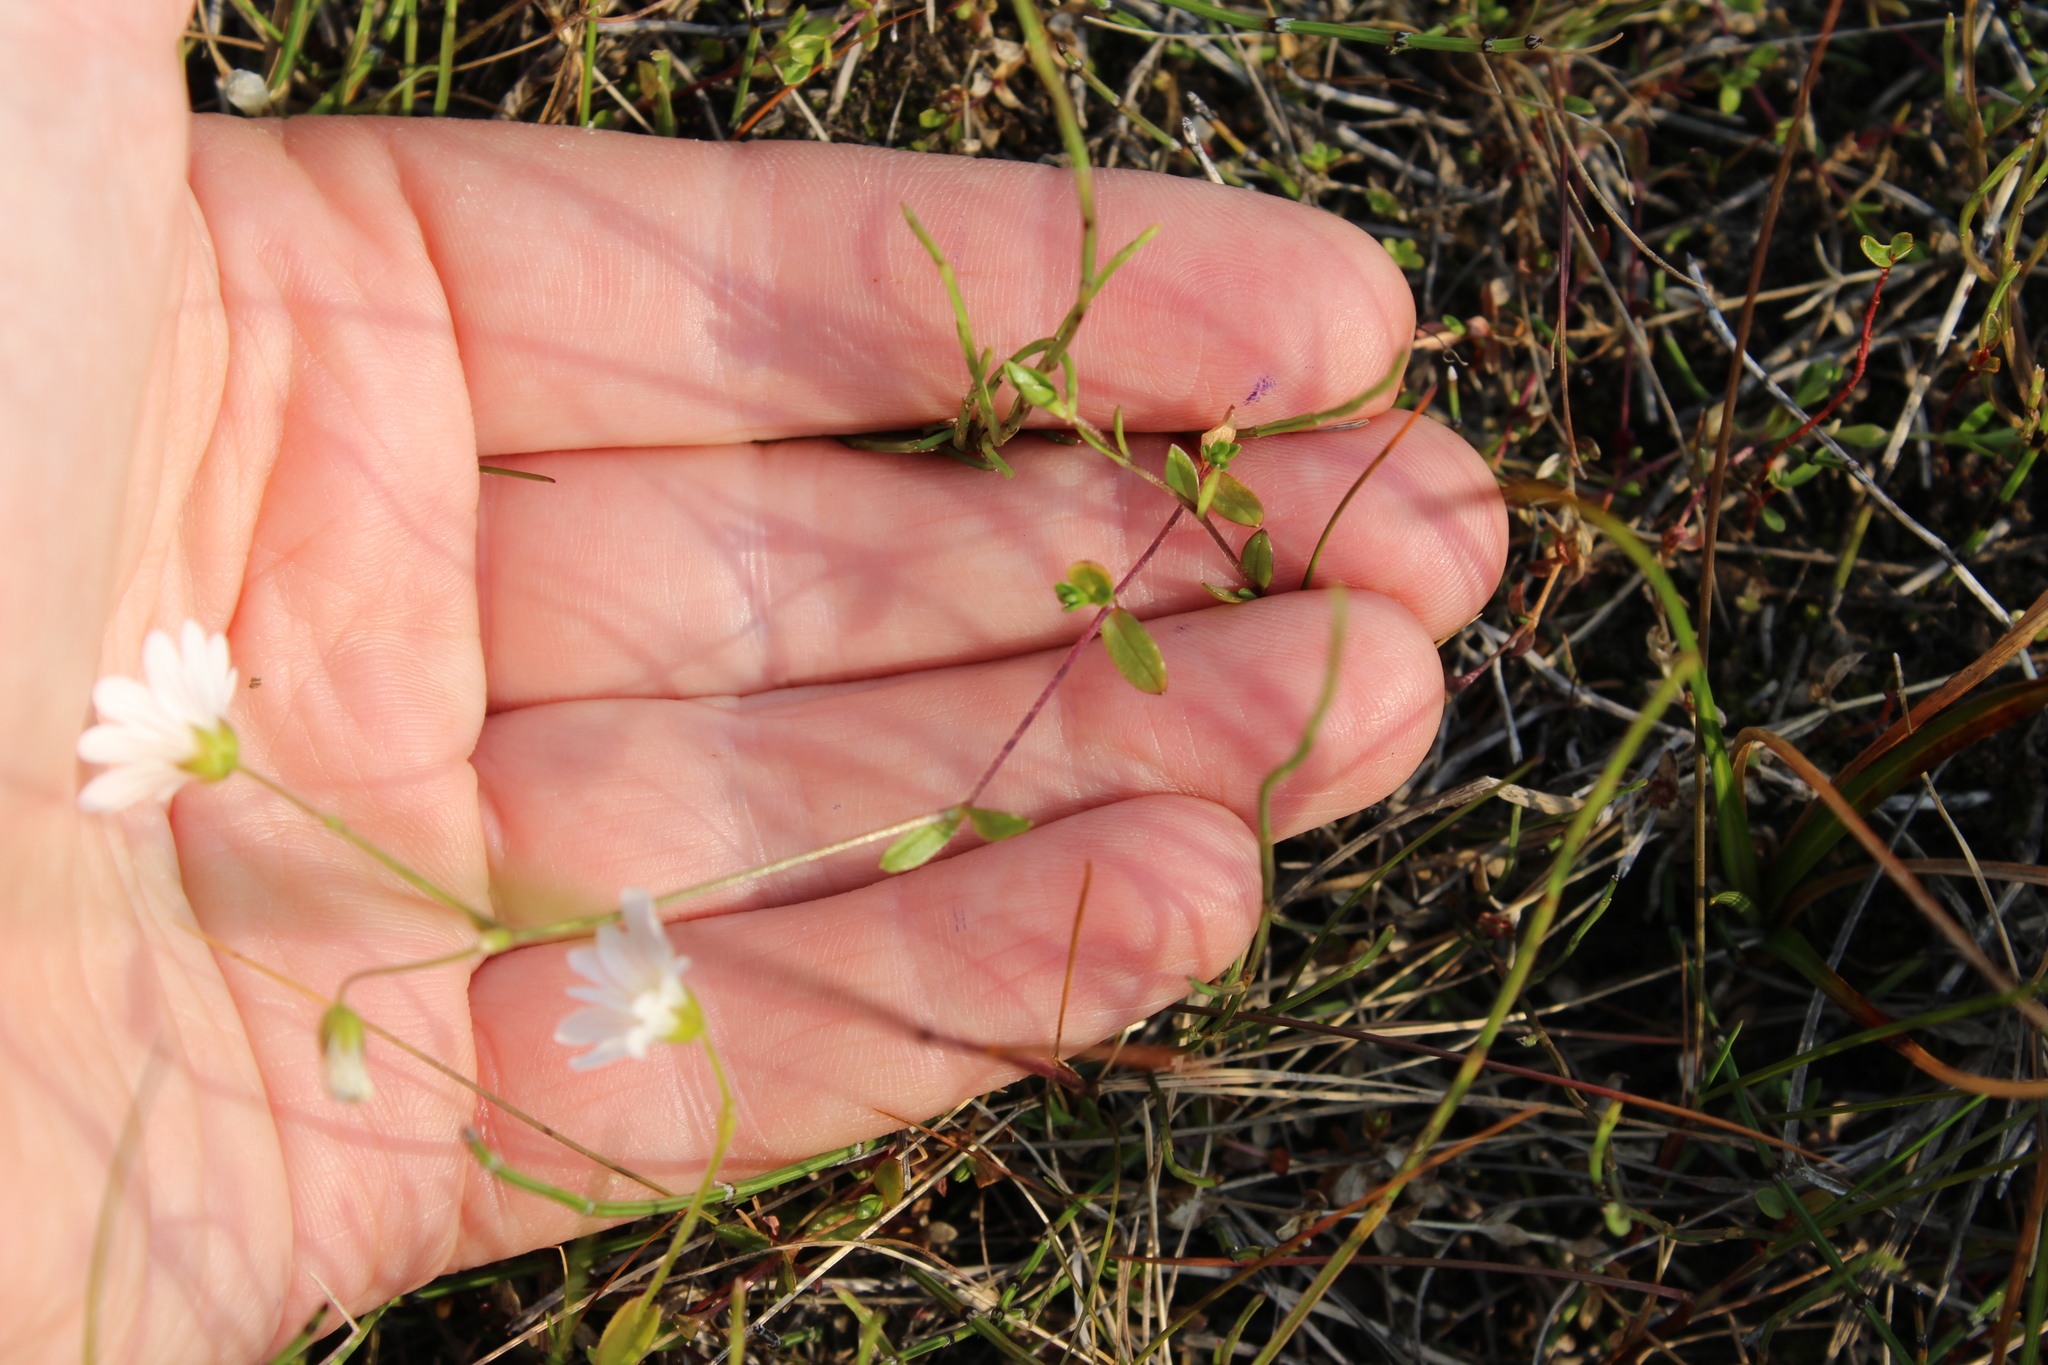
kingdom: Plantae
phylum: Tracheophyta
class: Magnoliopsida
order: Caryophyllales
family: Caryophyllaceae
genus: Cerastium
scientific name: Cerastium regelii
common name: Regel's chickweed
